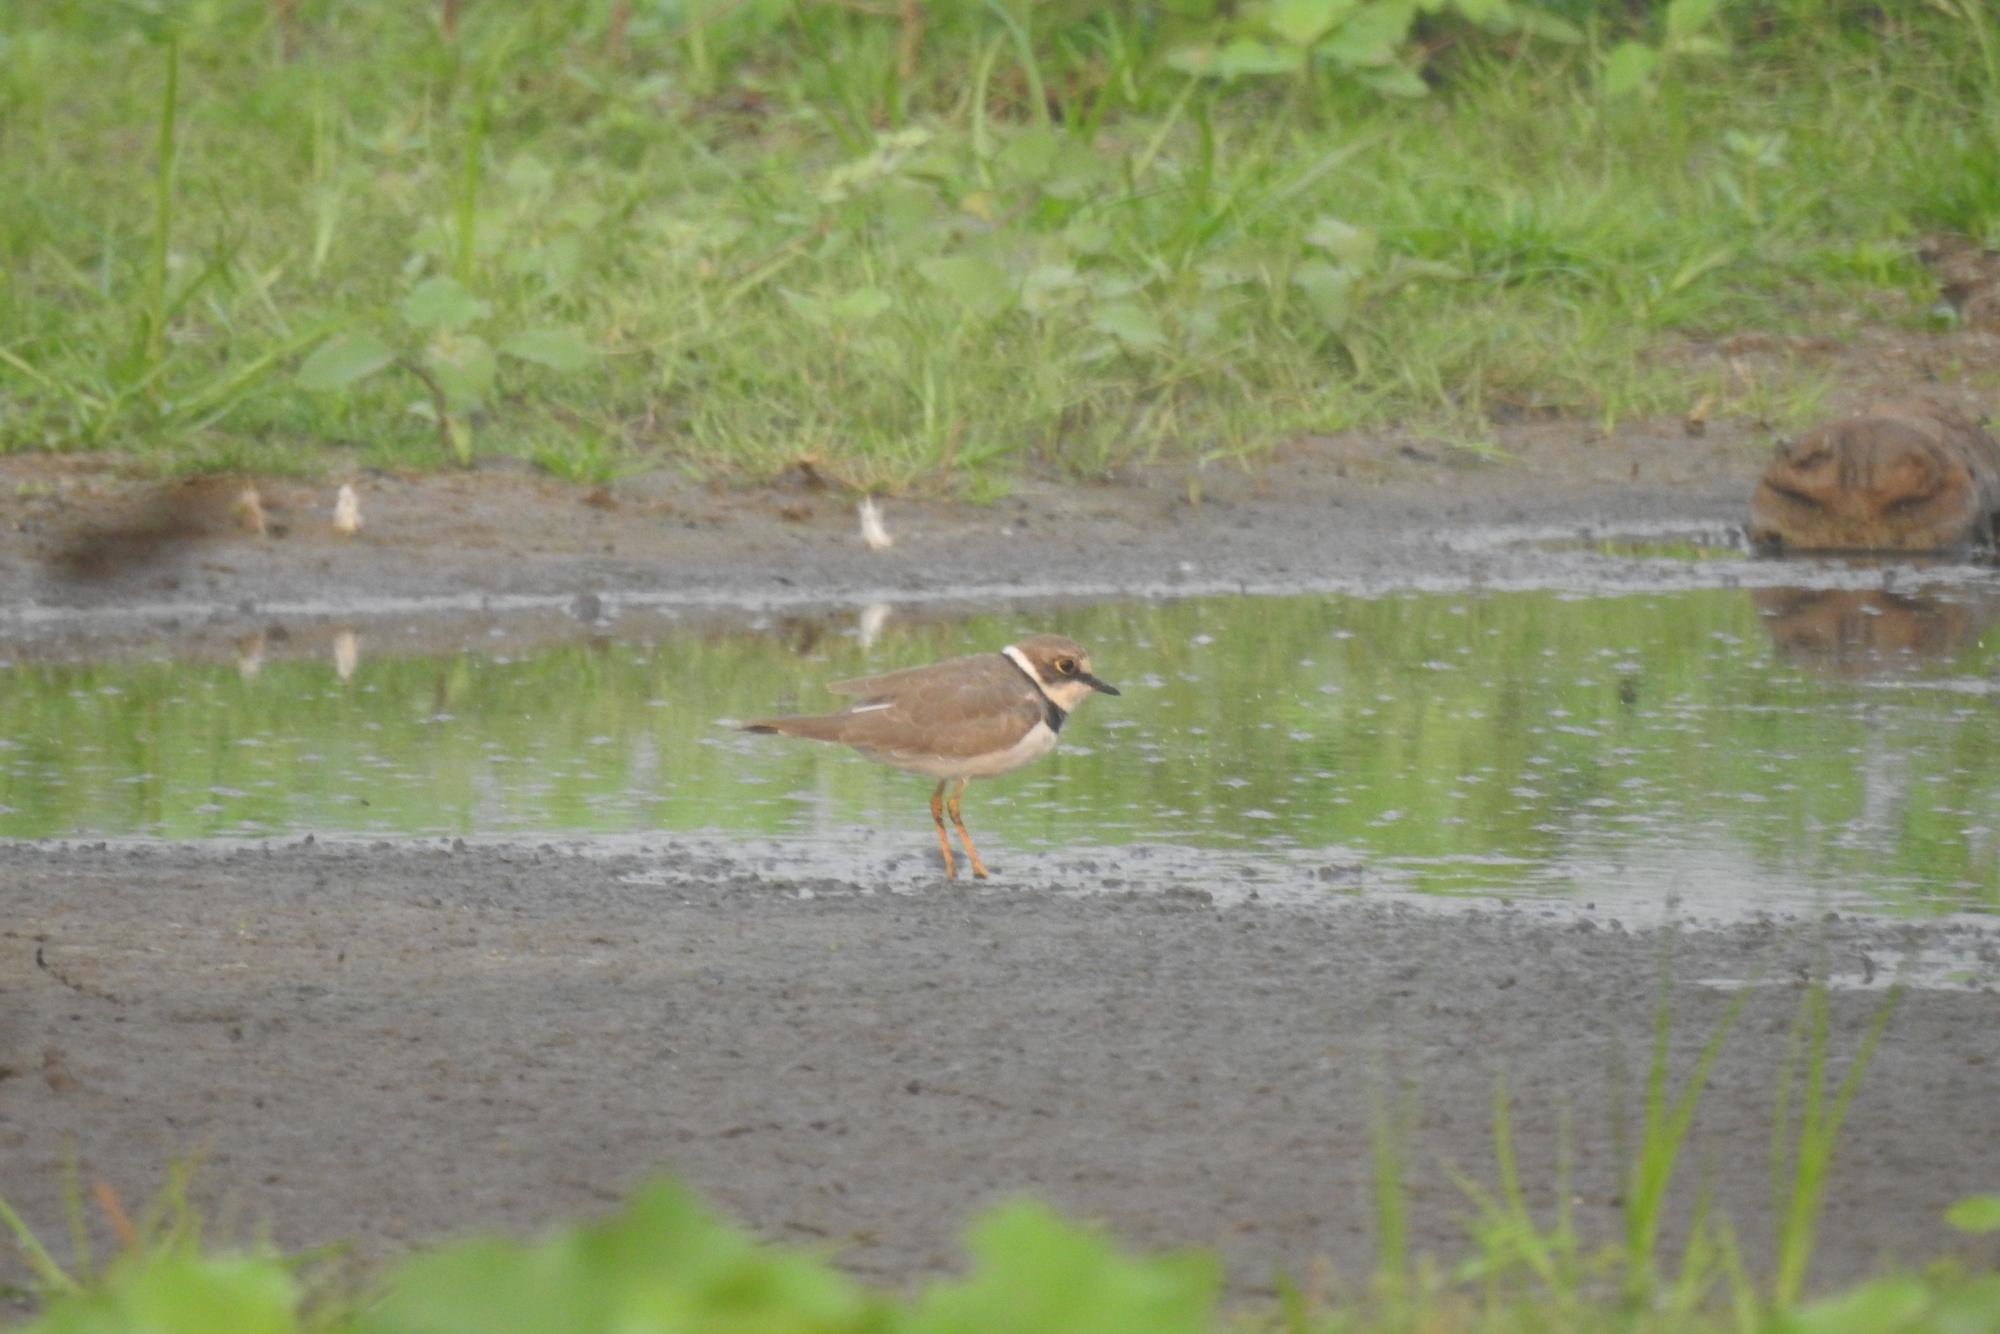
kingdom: Animalia
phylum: Chordata
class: Aves
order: Charadriiformes
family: Charadriidae
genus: Charadrius
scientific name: Charadrius dubius
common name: Little ringed plover
